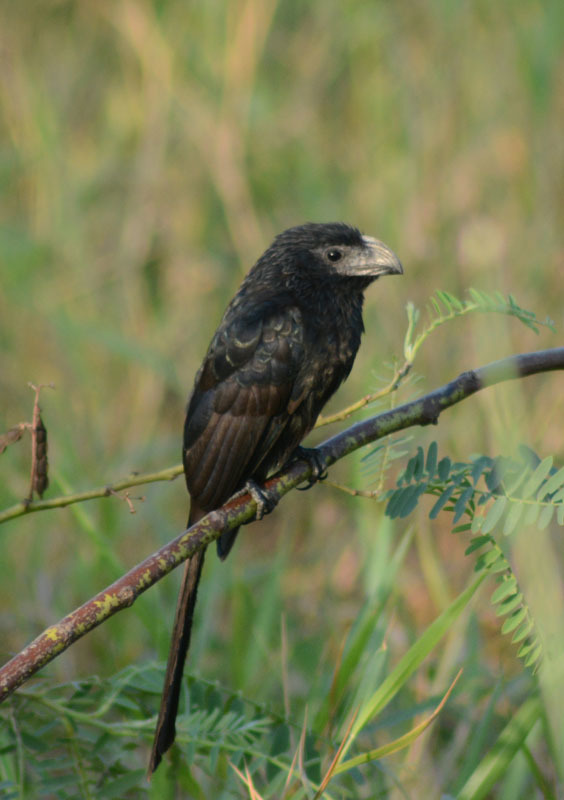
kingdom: Animalia
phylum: Chordata
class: Aves
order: Cuculiformes
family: Cuculidae
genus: Crotophaga
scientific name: Crotophaga sulcirostris
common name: Groove-billed ani
